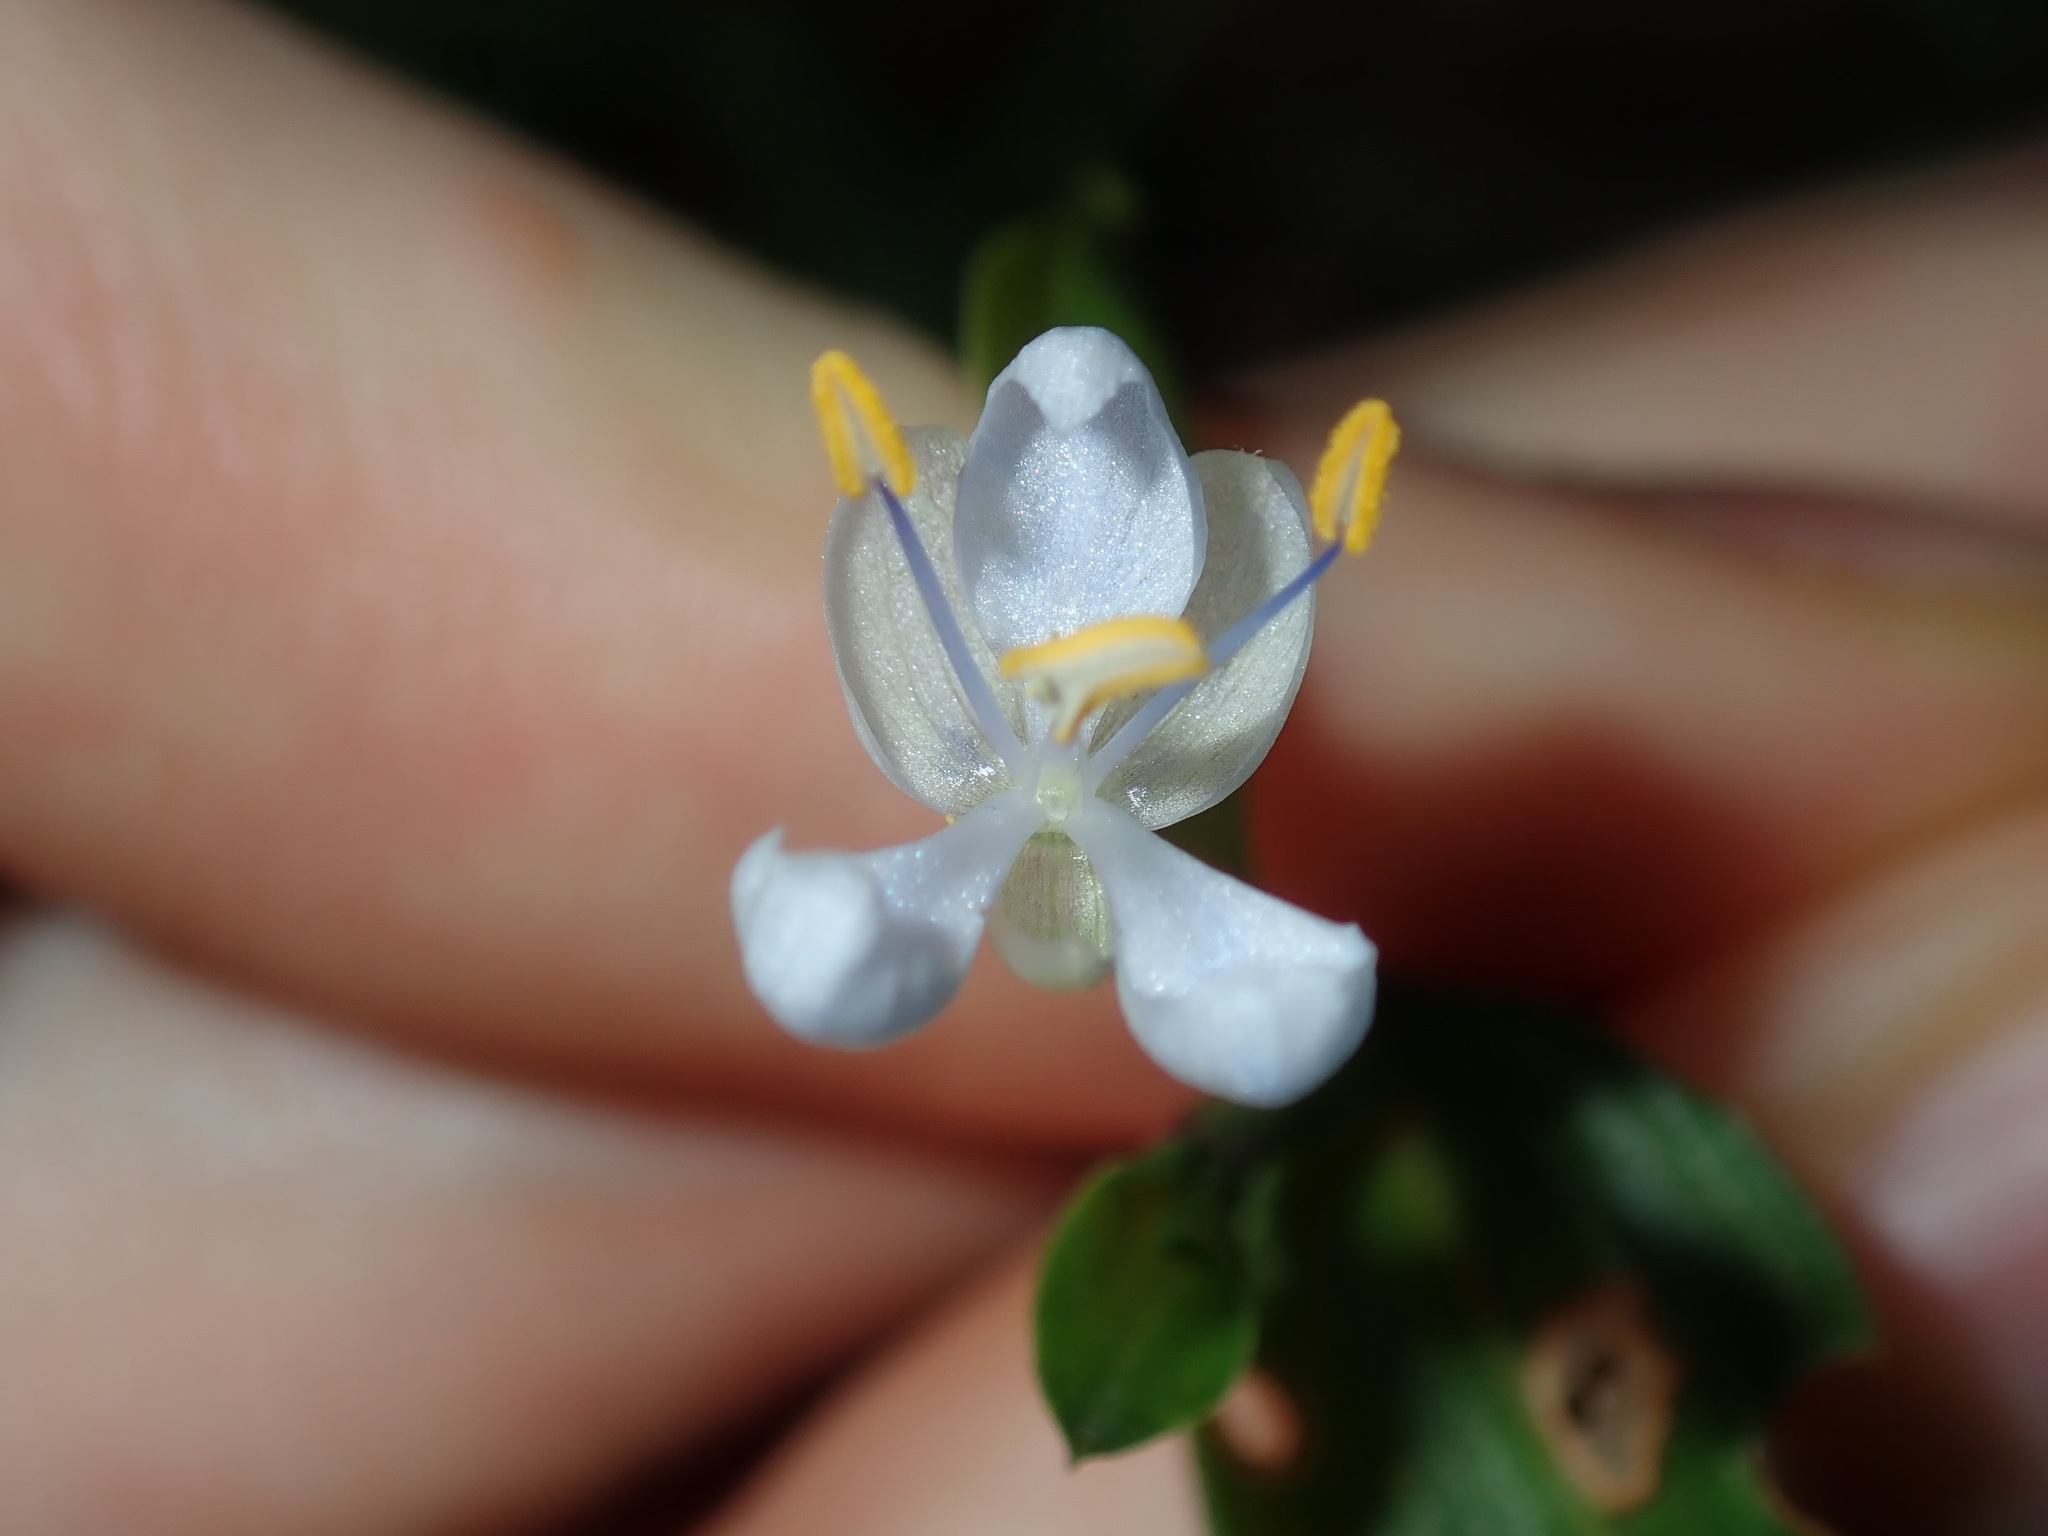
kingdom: Plantae
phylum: Tracheophyta
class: Liliopsida
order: Commelinales
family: Commelinaceae
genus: Commelina
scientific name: Commelina cyanea
